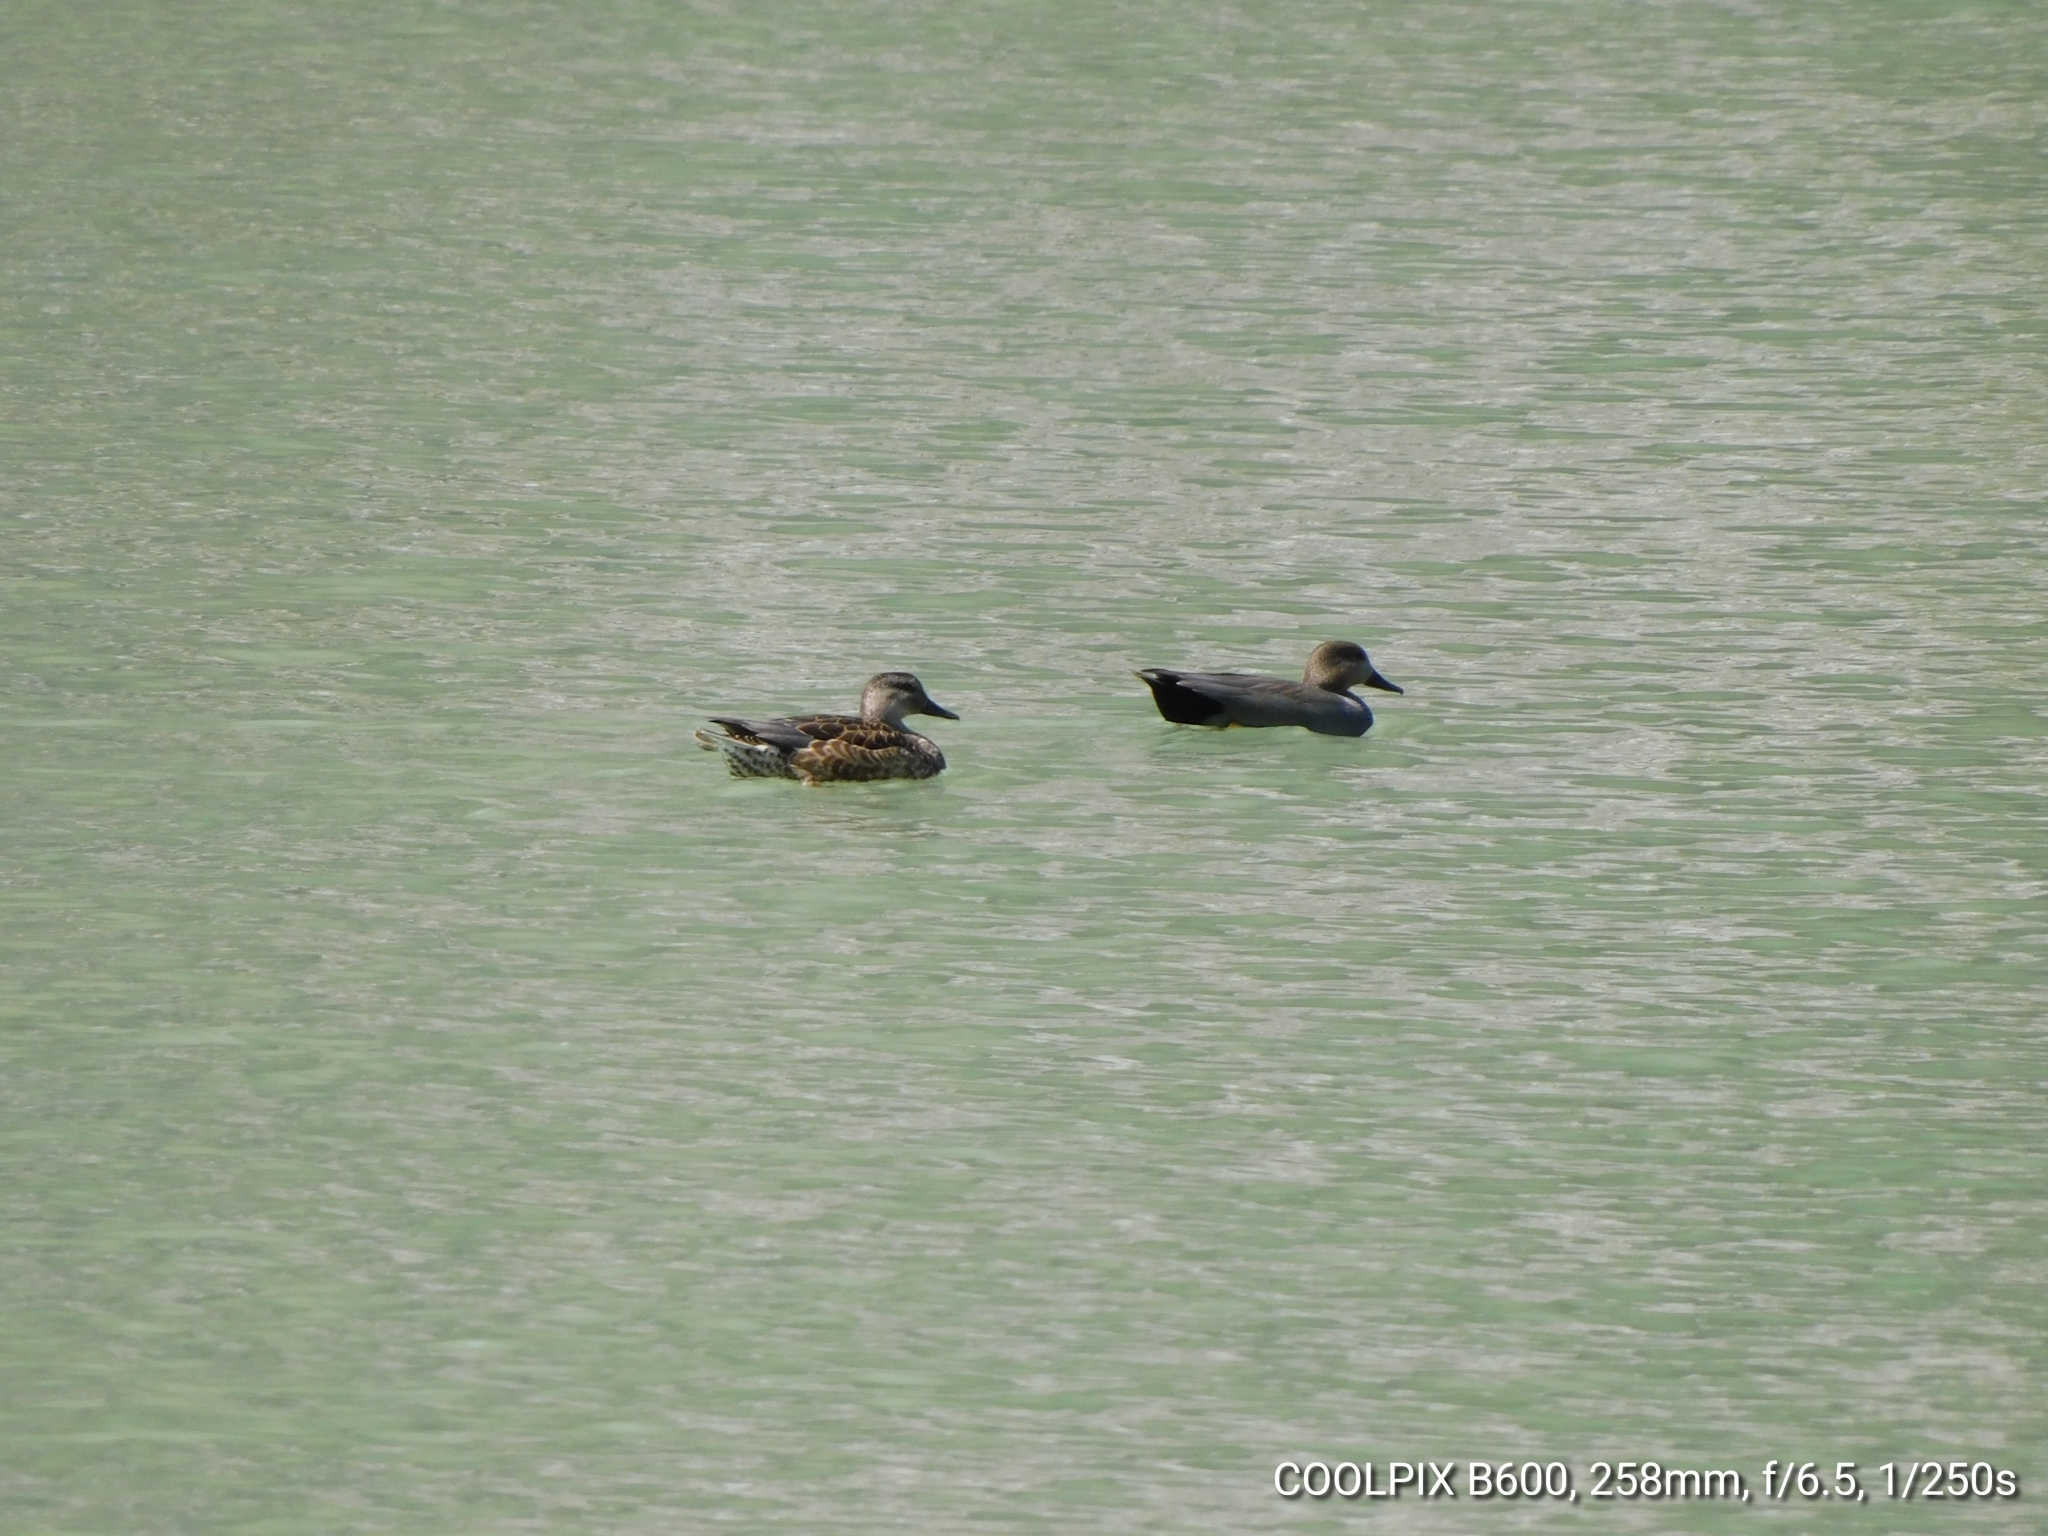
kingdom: Animalia
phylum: Chordata
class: Aves
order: Anseriformes
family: Anatidae
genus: Mareca
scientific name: Mareca strepera
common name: Gadwall
